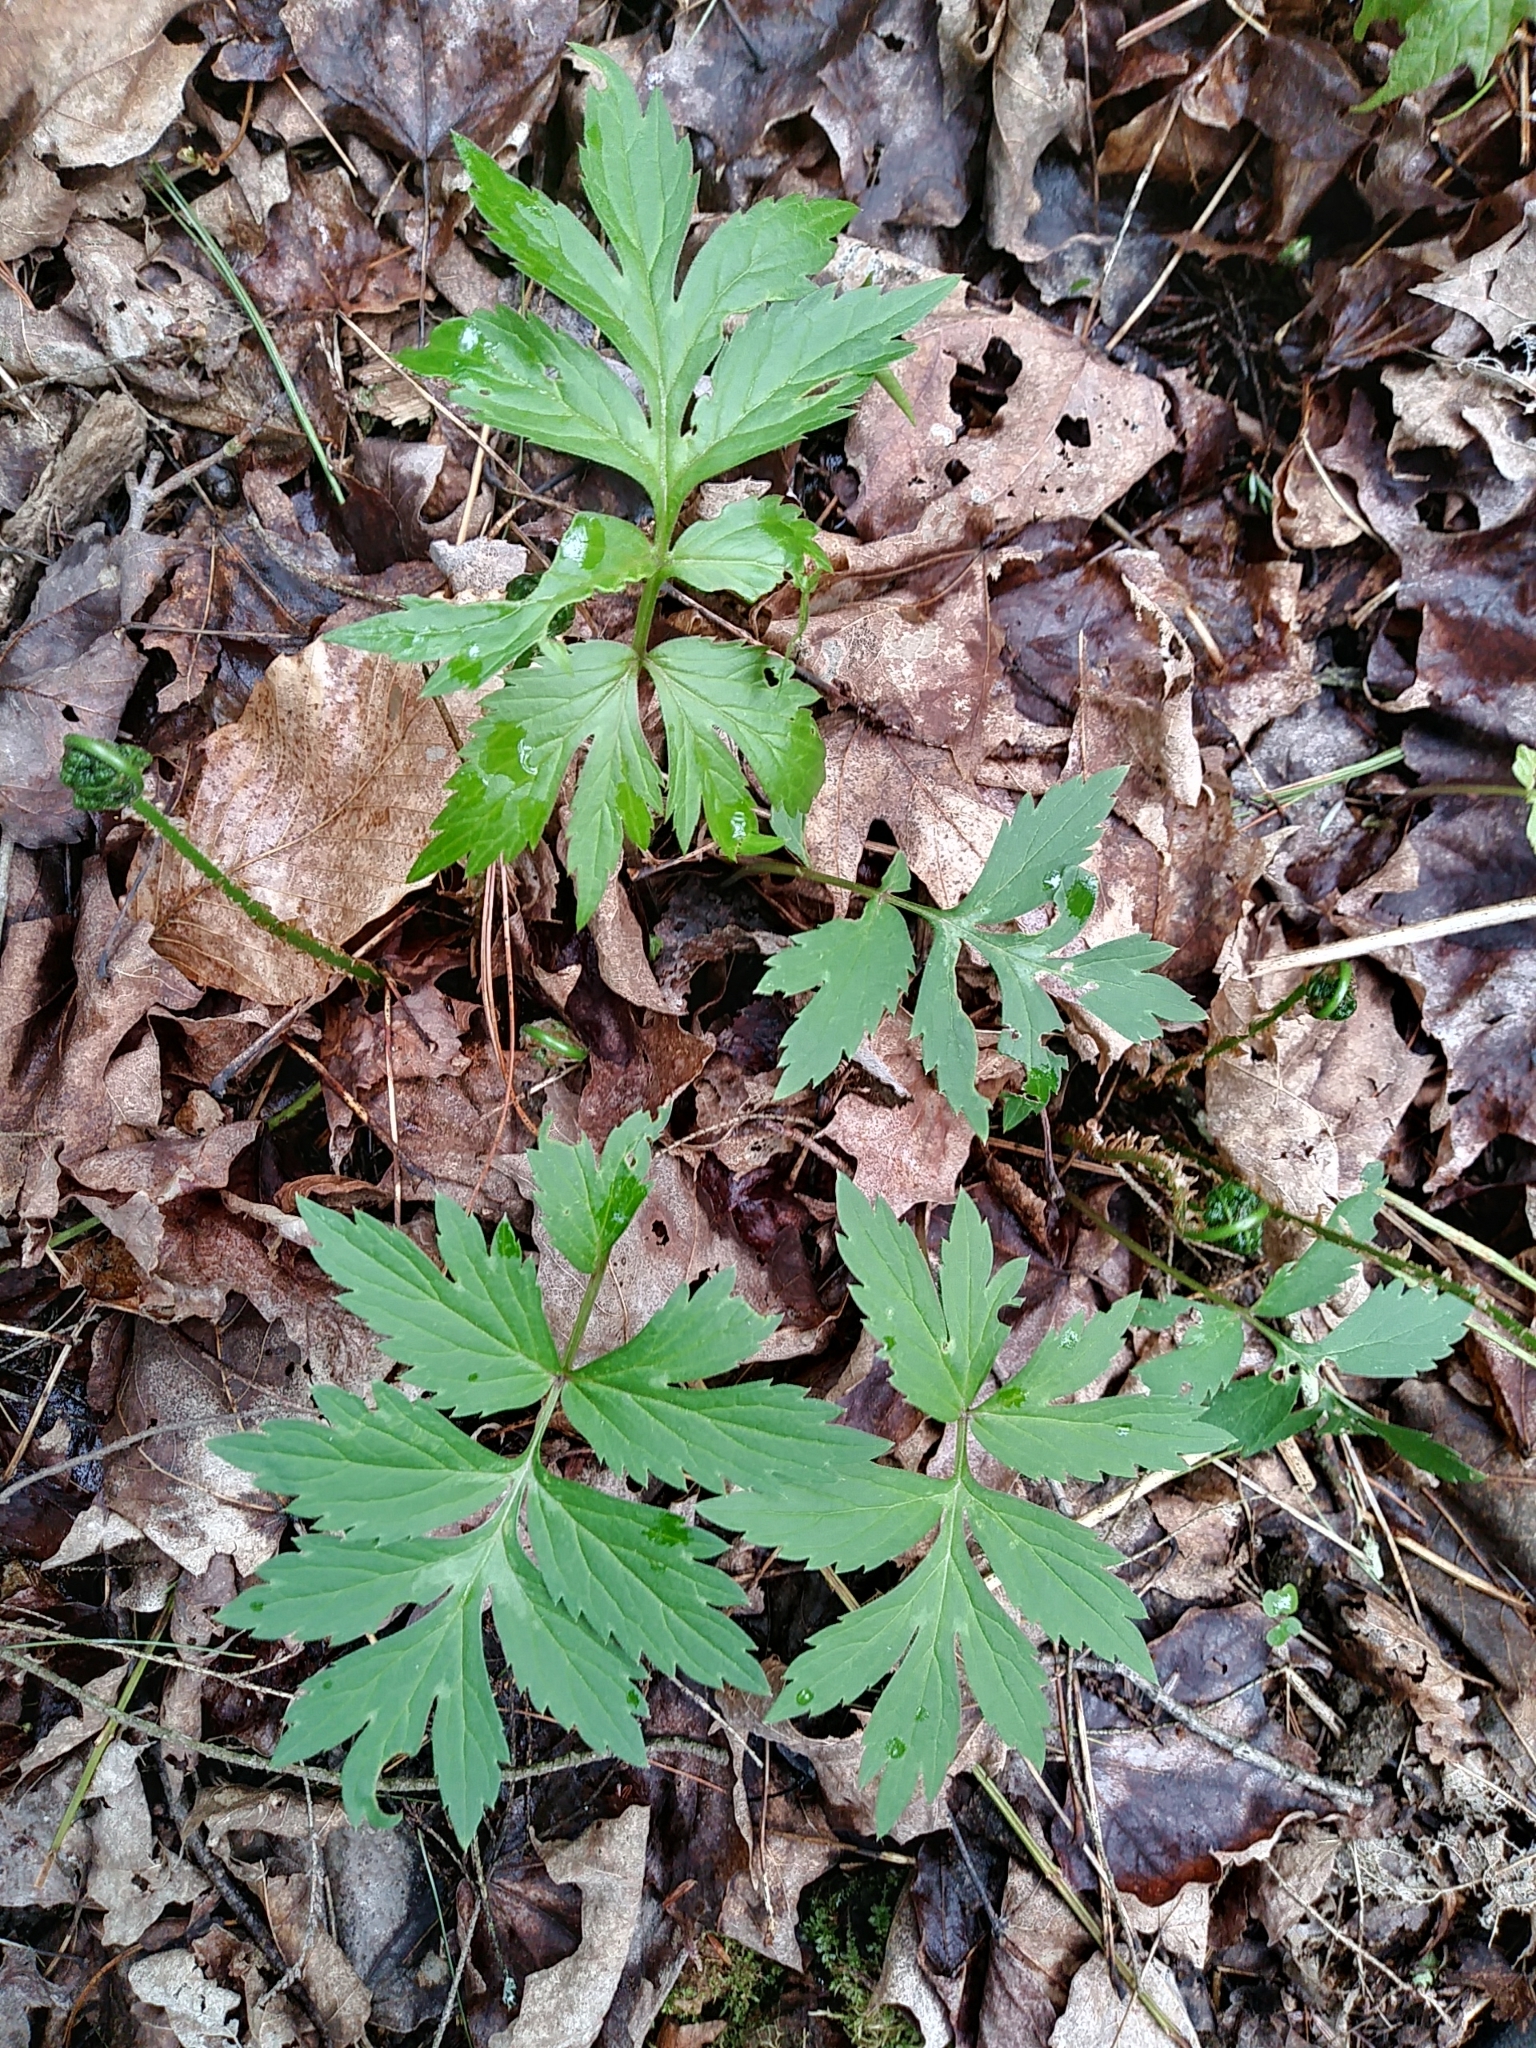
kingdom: Plantae
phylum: Tracheophyta
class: Magnoliopsida
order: Boraginales
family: Hydrophyllaceae
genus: Hydrophyllum
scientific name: Hydrophyllum virginianum
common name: Virginia waterleaf
